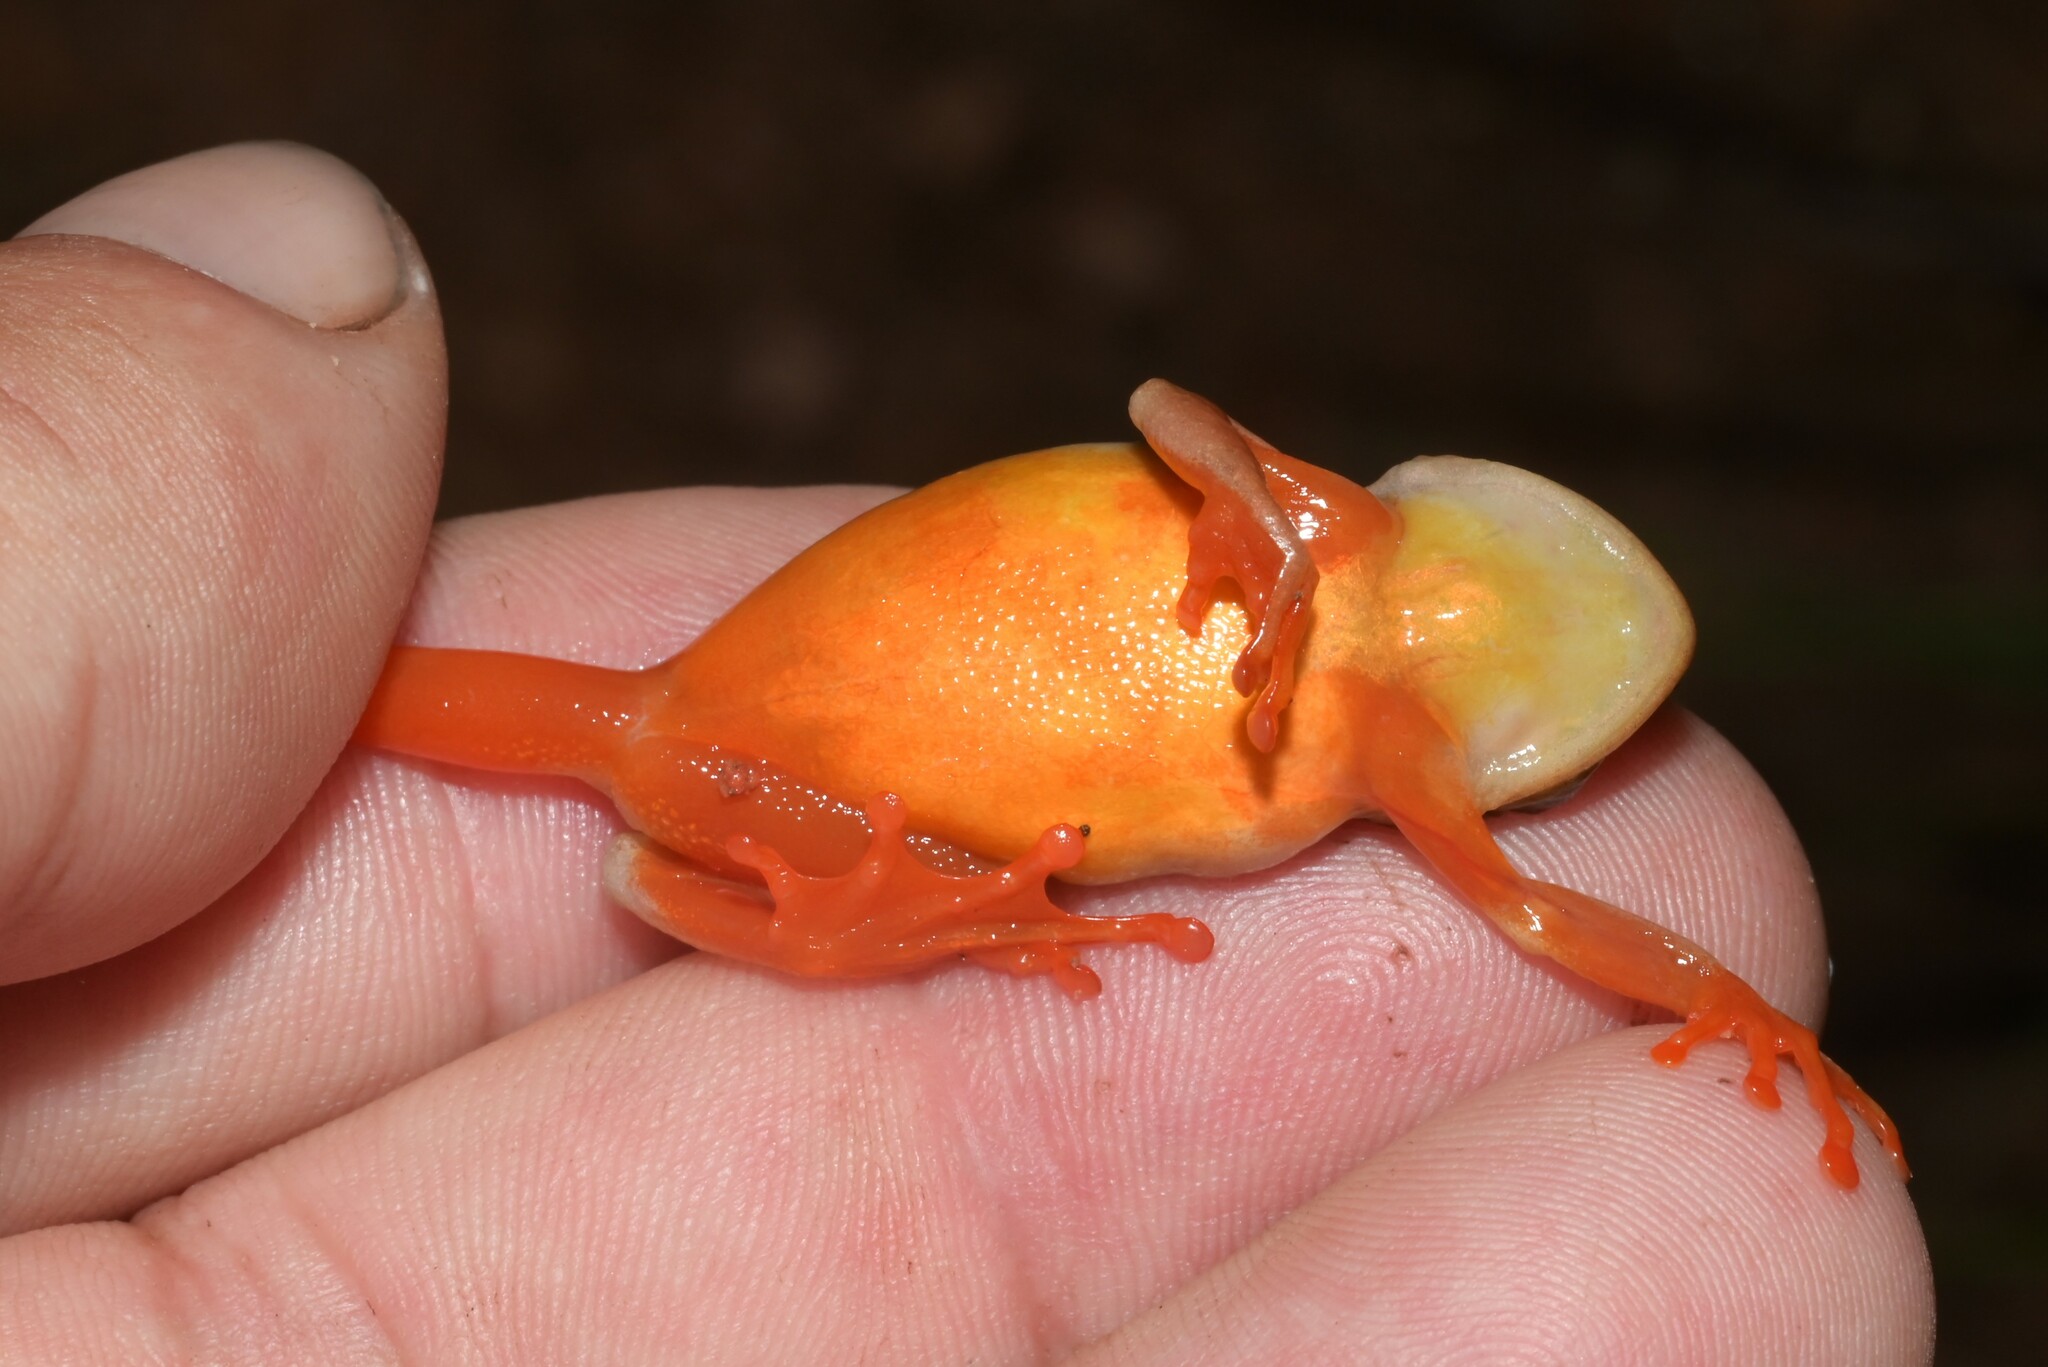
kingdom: Animalia
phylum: Chordata
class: Amphibia
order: Anura
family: Hyperoliidae
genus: Hyperolius
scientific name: Hyperolius substriatus
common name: Spotted reed frog
